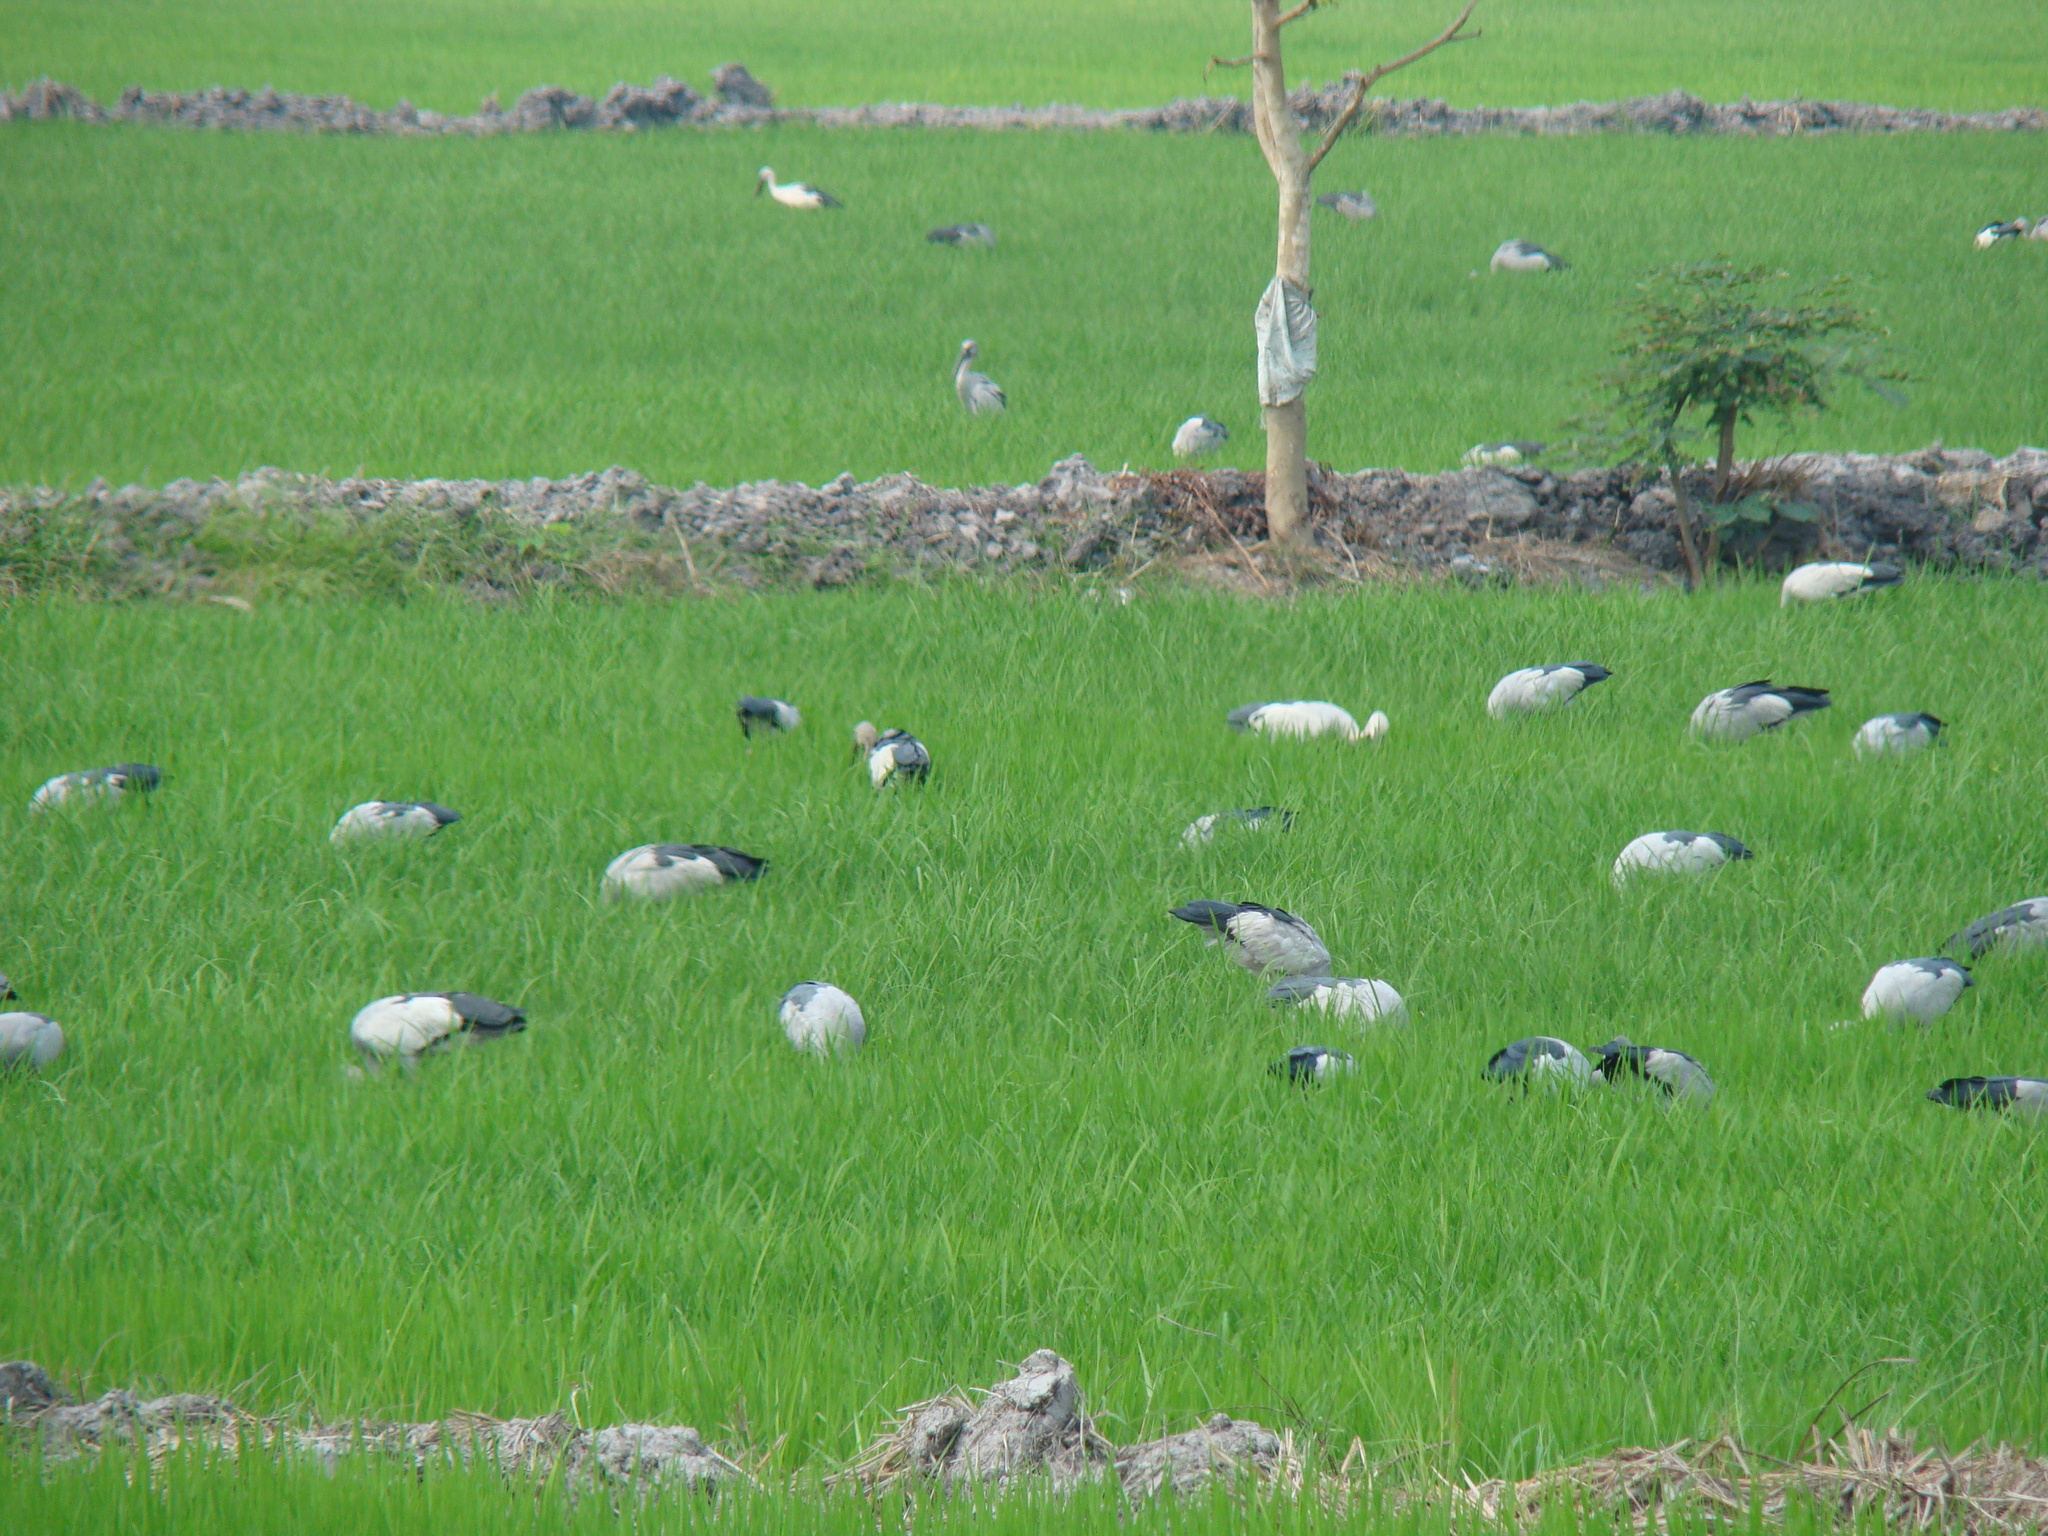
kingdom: Animalia
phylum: Chordata
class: Aves
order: Ciconiiformes
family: Ciconiidae
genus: Anastomus
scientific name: Anastomus oscitans
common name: Asian openbill
